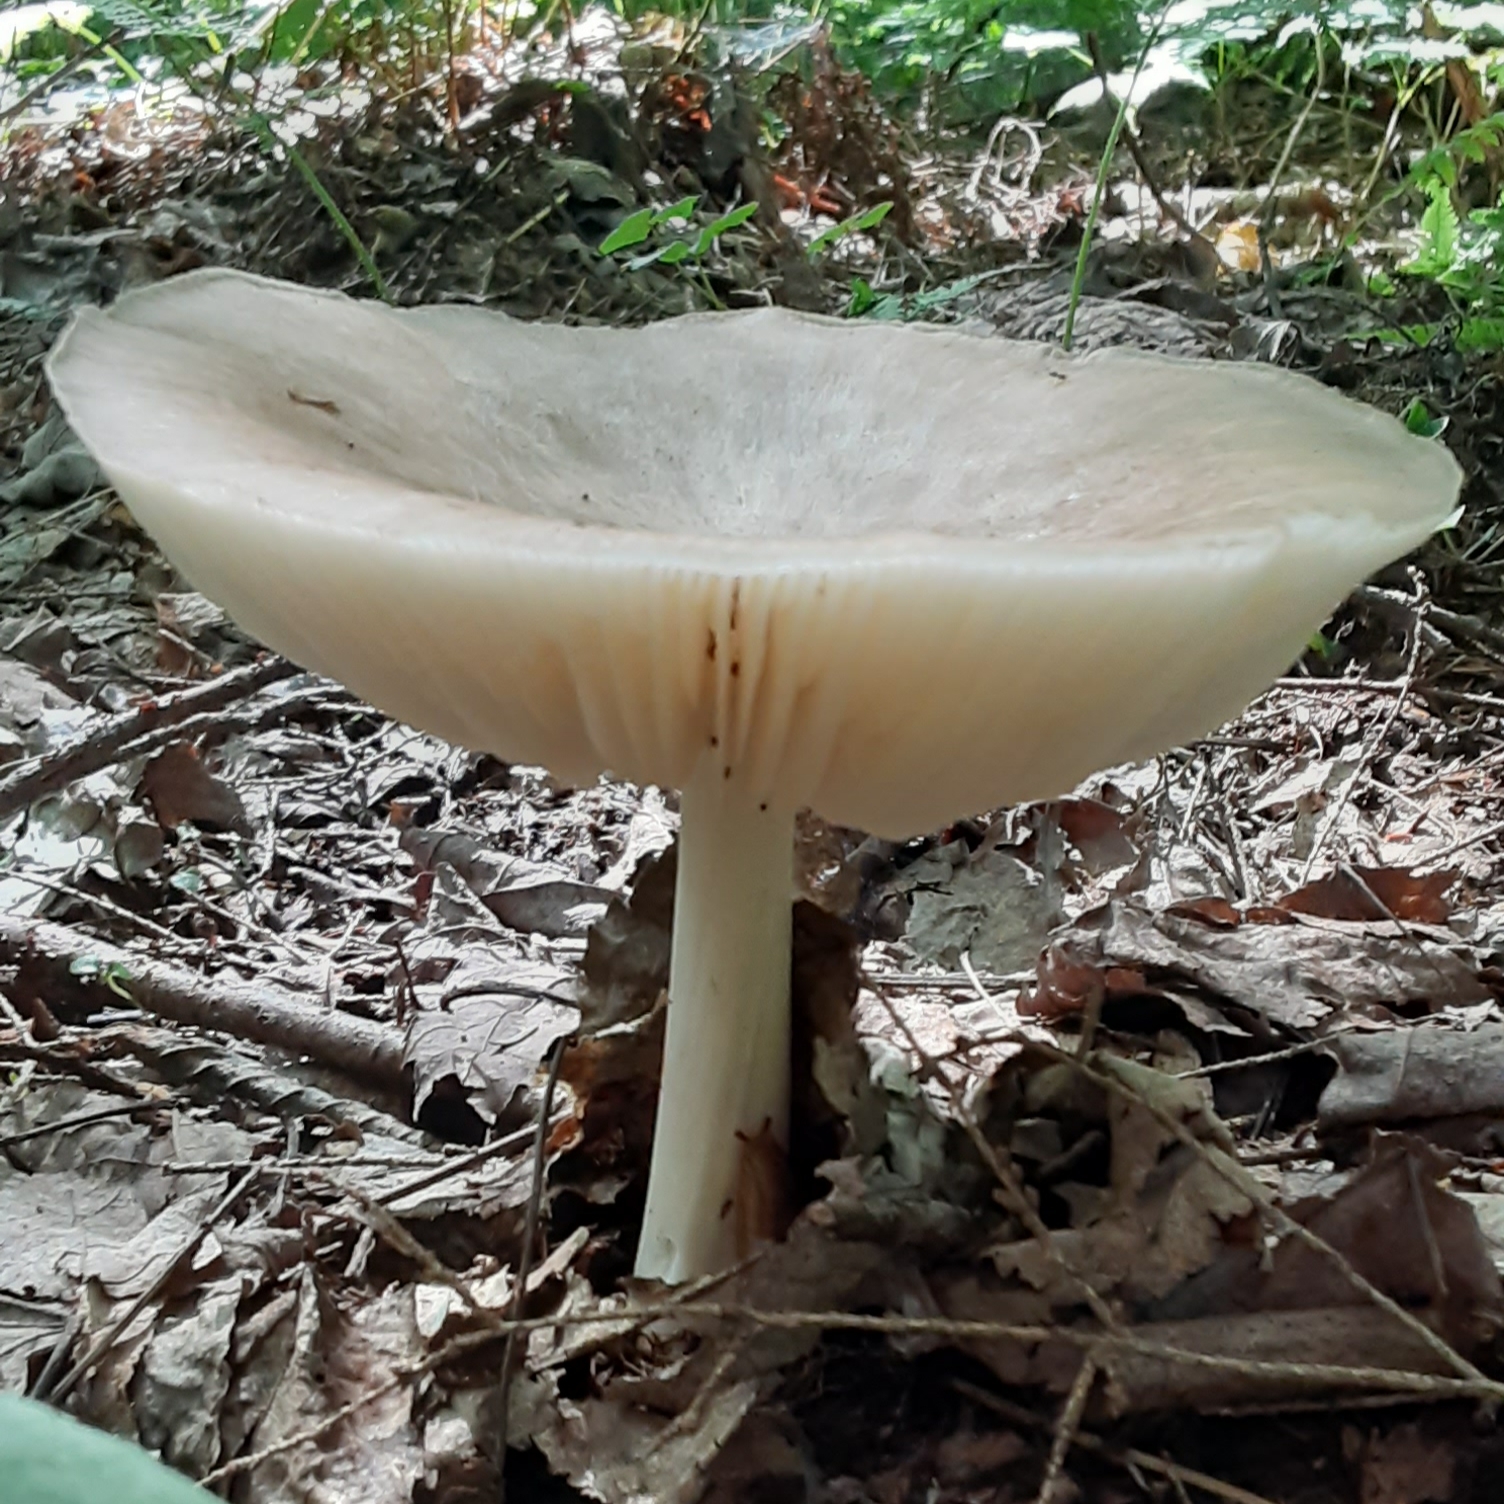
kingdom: Fungi
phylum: Basidiomycota
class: Agaricomycetes
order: Agaricales
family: Tricholomataceae
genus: Megacollybia
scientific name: Megacollybia rodmanii
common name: Eastern american platterful mushroom
